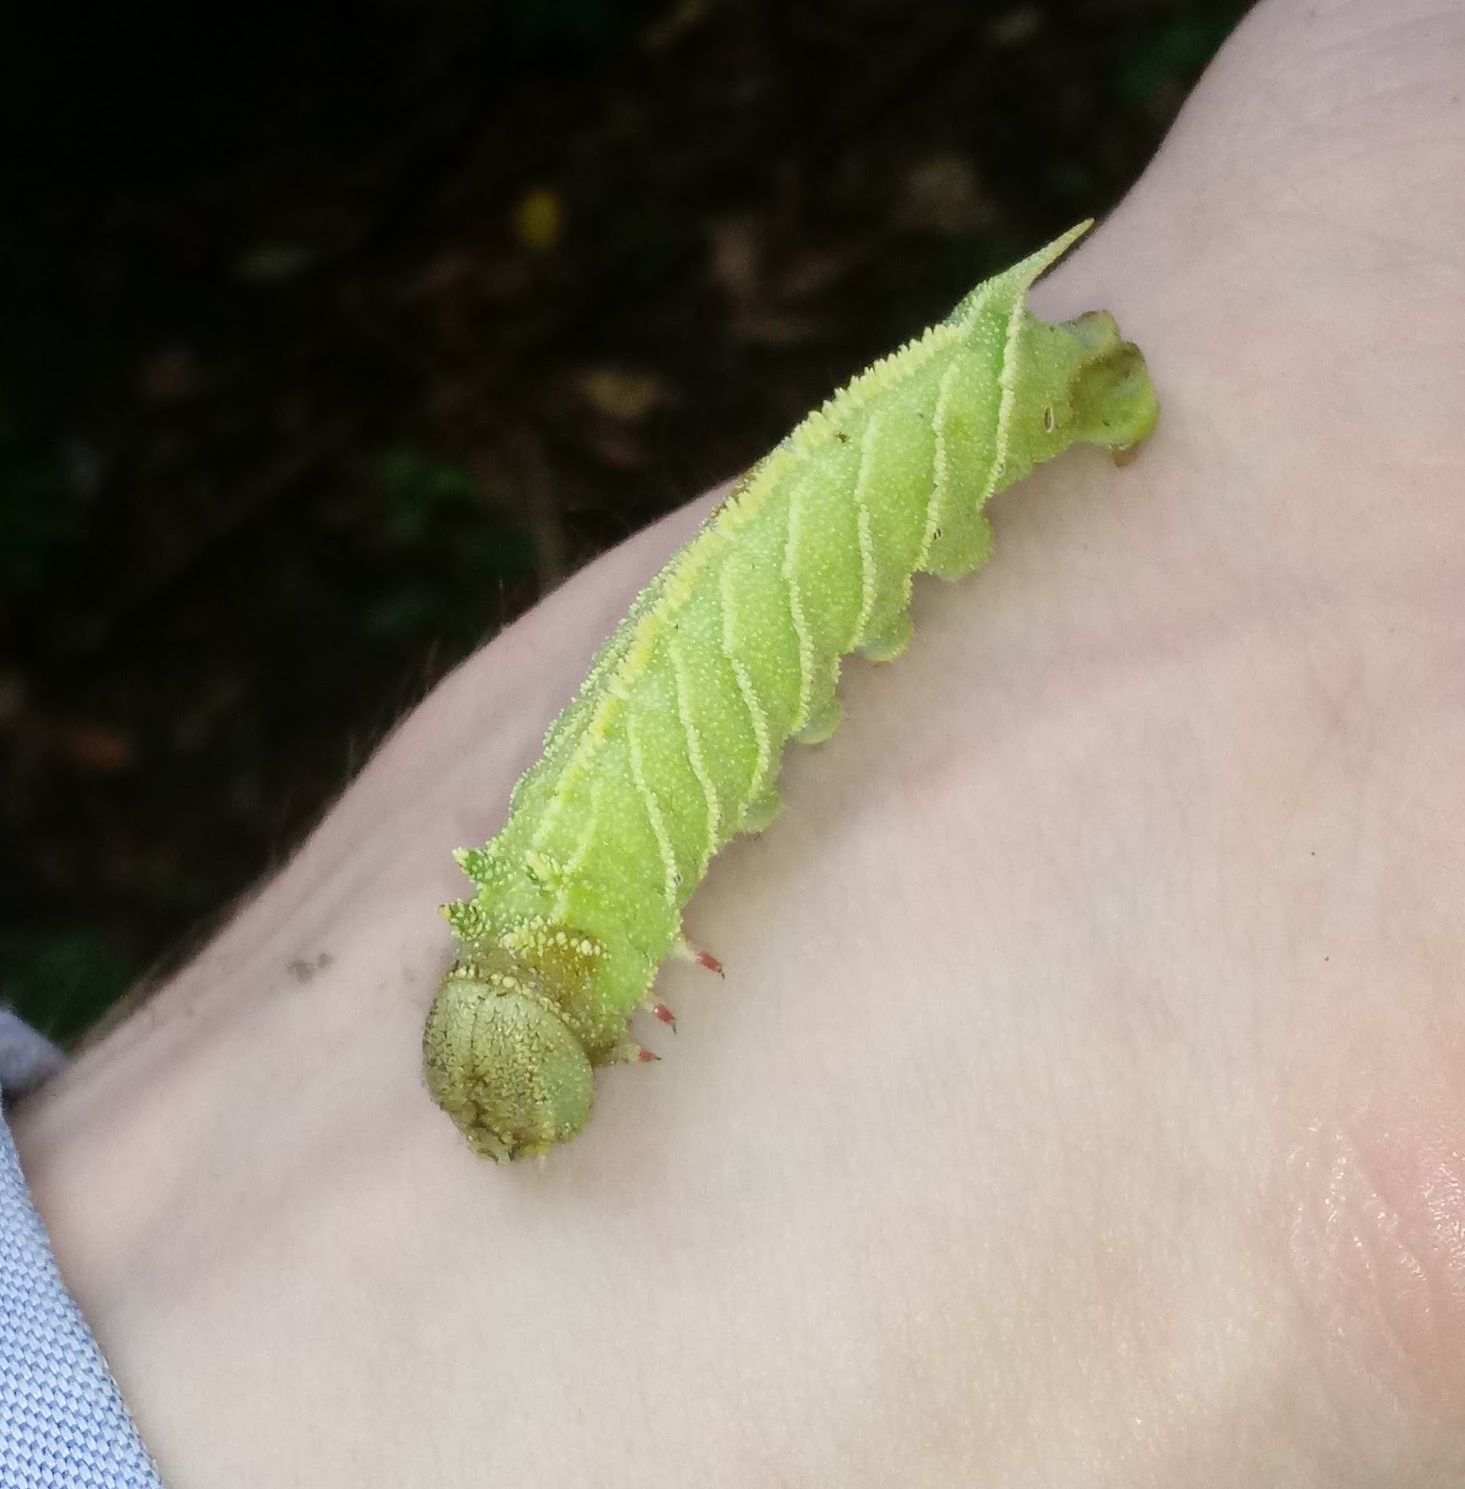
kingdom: Animalia
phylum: Arthropoda
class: Insecta
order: Lepidoptera
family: Sphingidae
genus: Ceratomia
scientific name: Ceratomia amyntor
